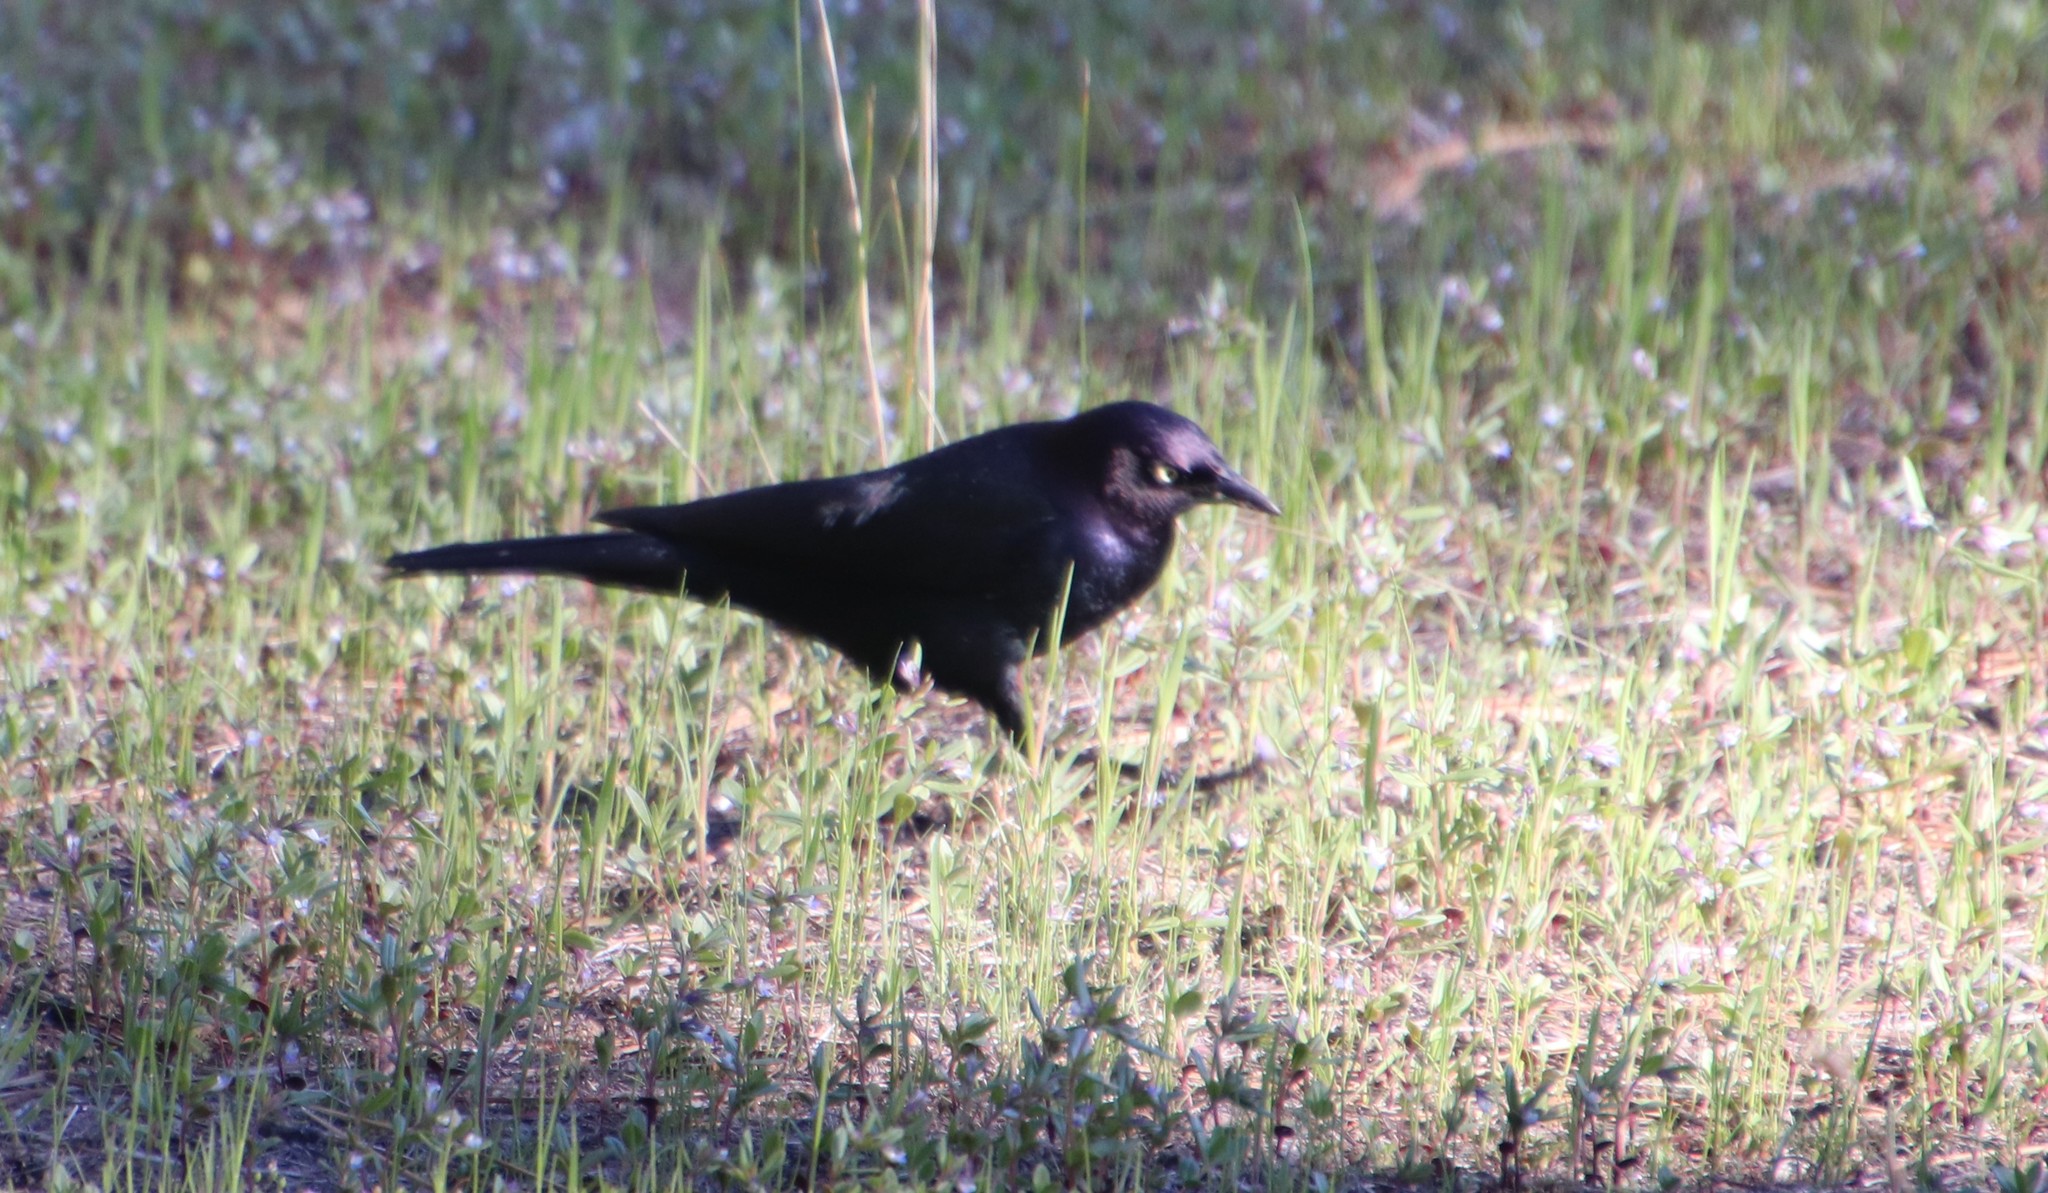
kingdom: Animalia
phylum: Chordata
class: Aves
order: Passeriformes
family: Icteridae
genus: Euphagus
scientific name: Euphagus cyanocephalus
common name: Brewer's blackbird
